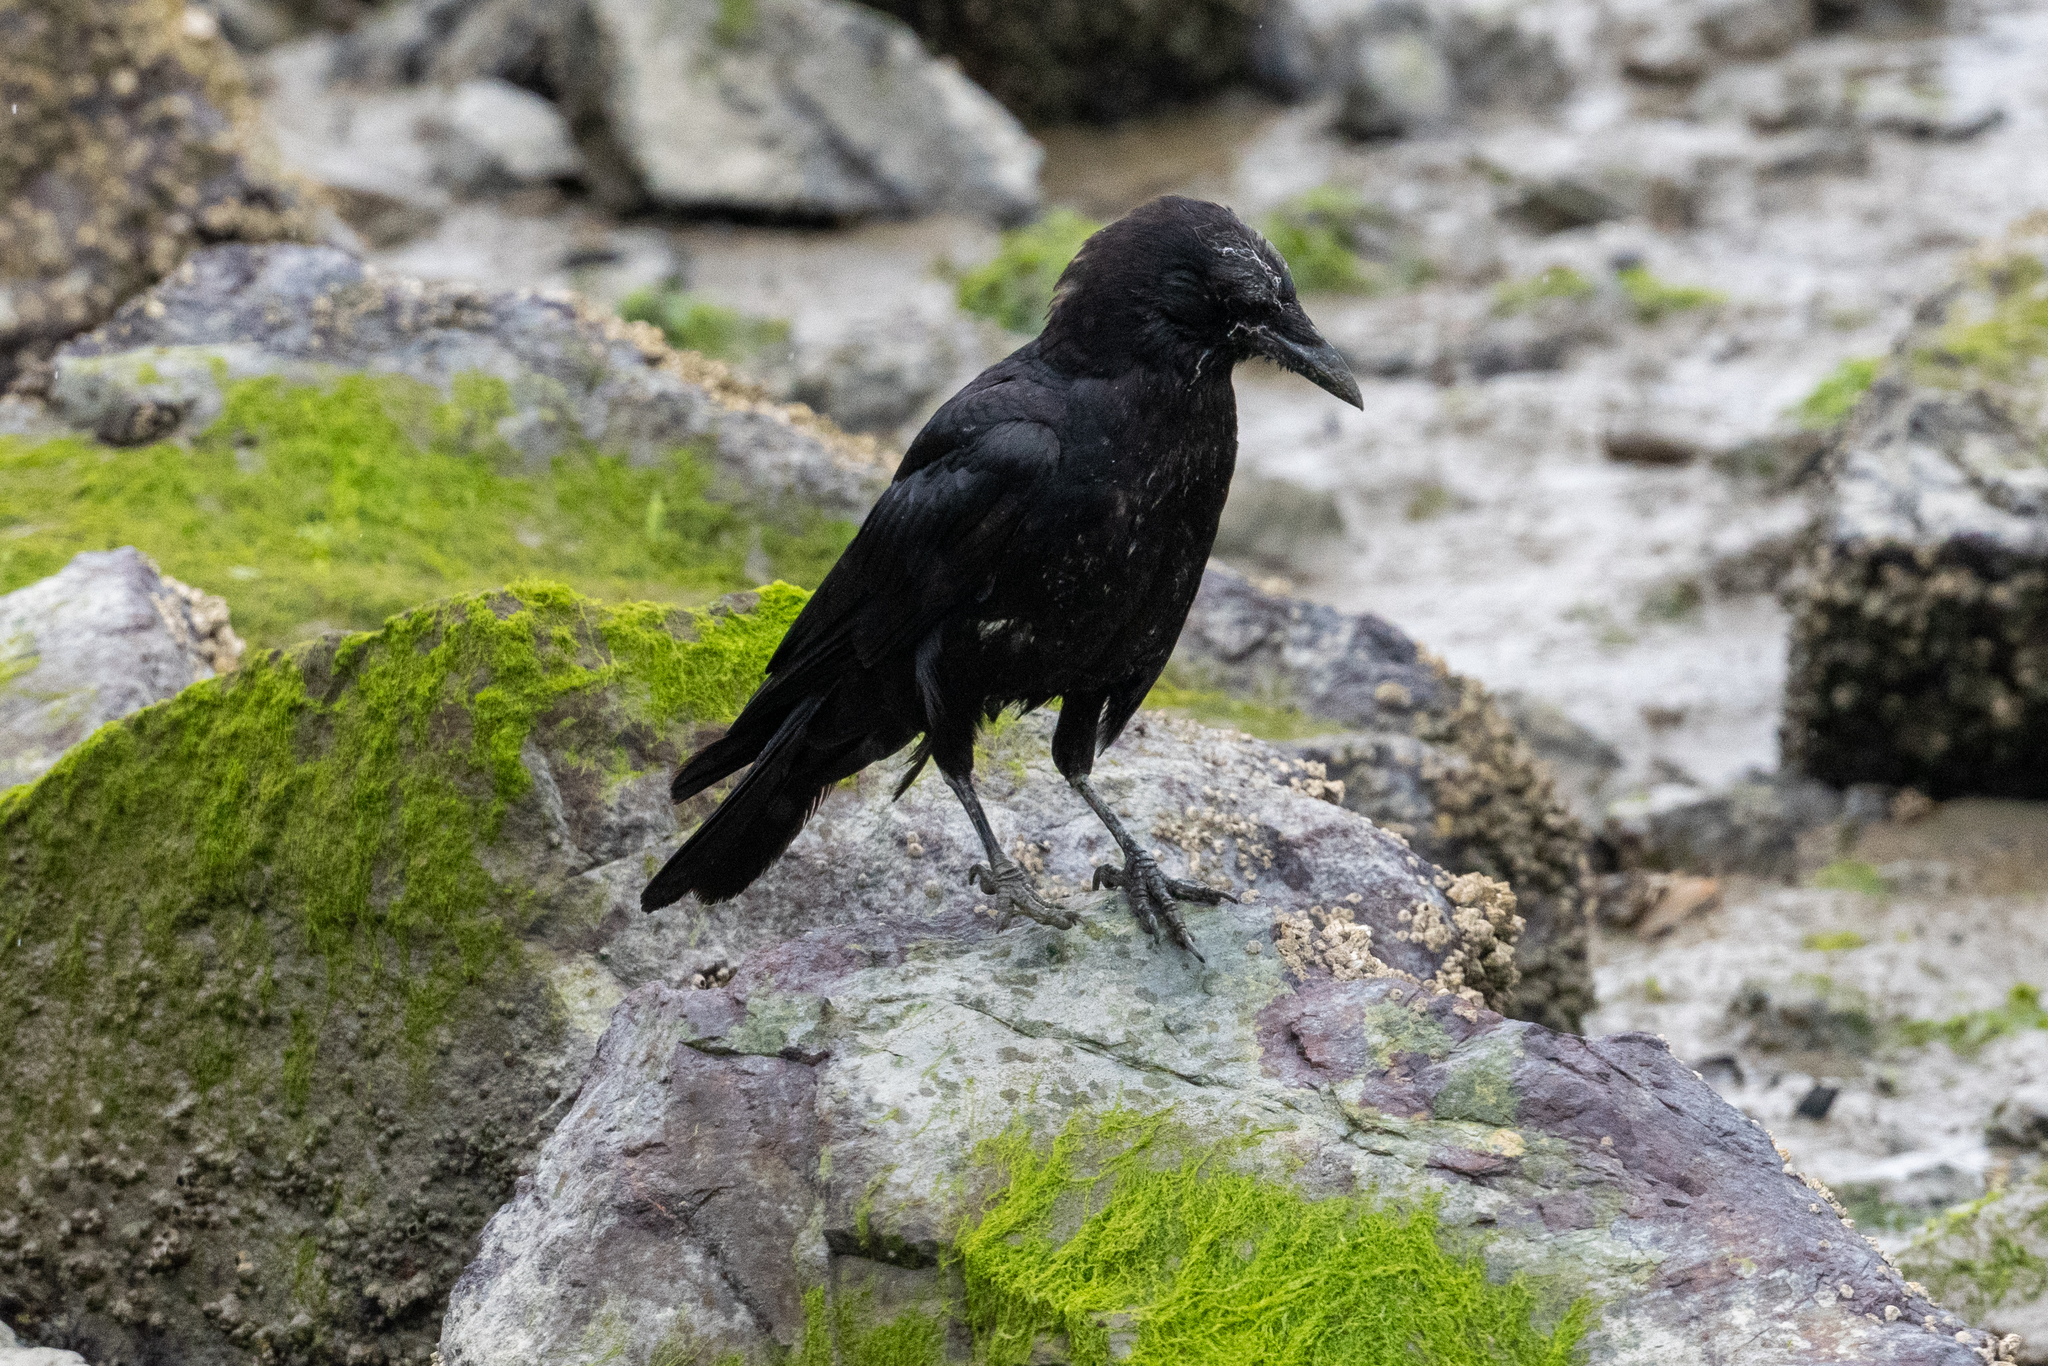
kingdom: Animalia
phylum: Chordata
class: Aves
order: Passeriformes
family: Corvidae
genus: Corvus
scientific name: Corvus brachyrhynchos
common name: American crow
